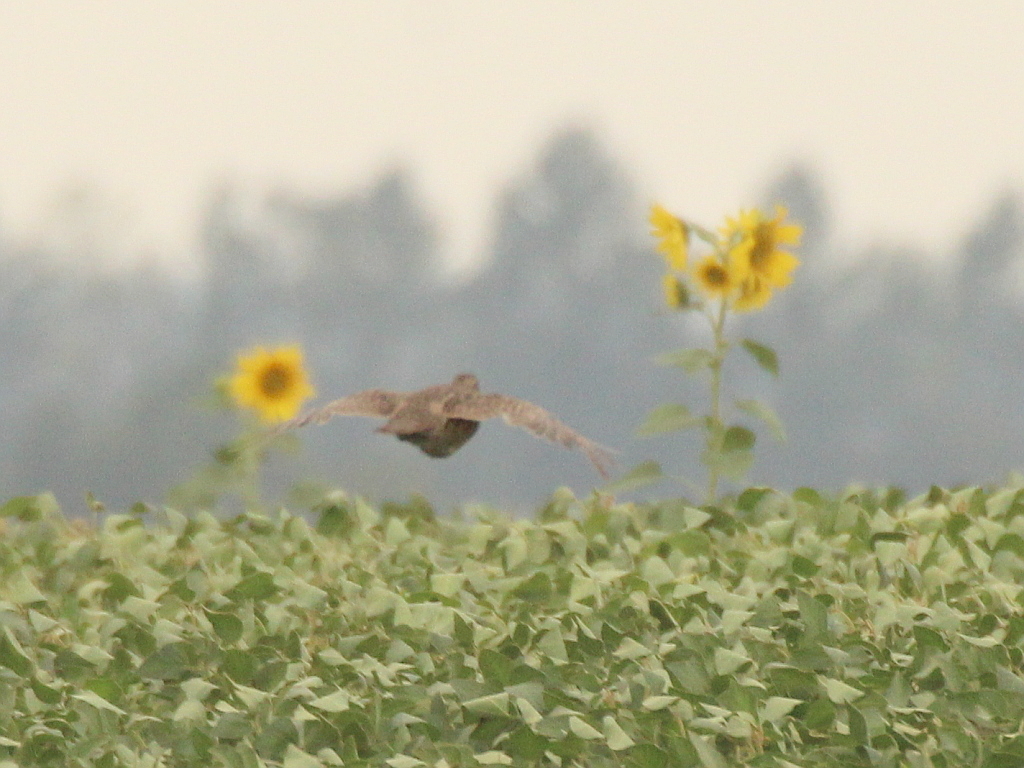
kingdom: Animalia
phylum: Chordata
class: Aves
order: Galliformes
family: Phasianidae
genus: Perdix
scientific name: Perdix perdix
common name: Grey partridge
